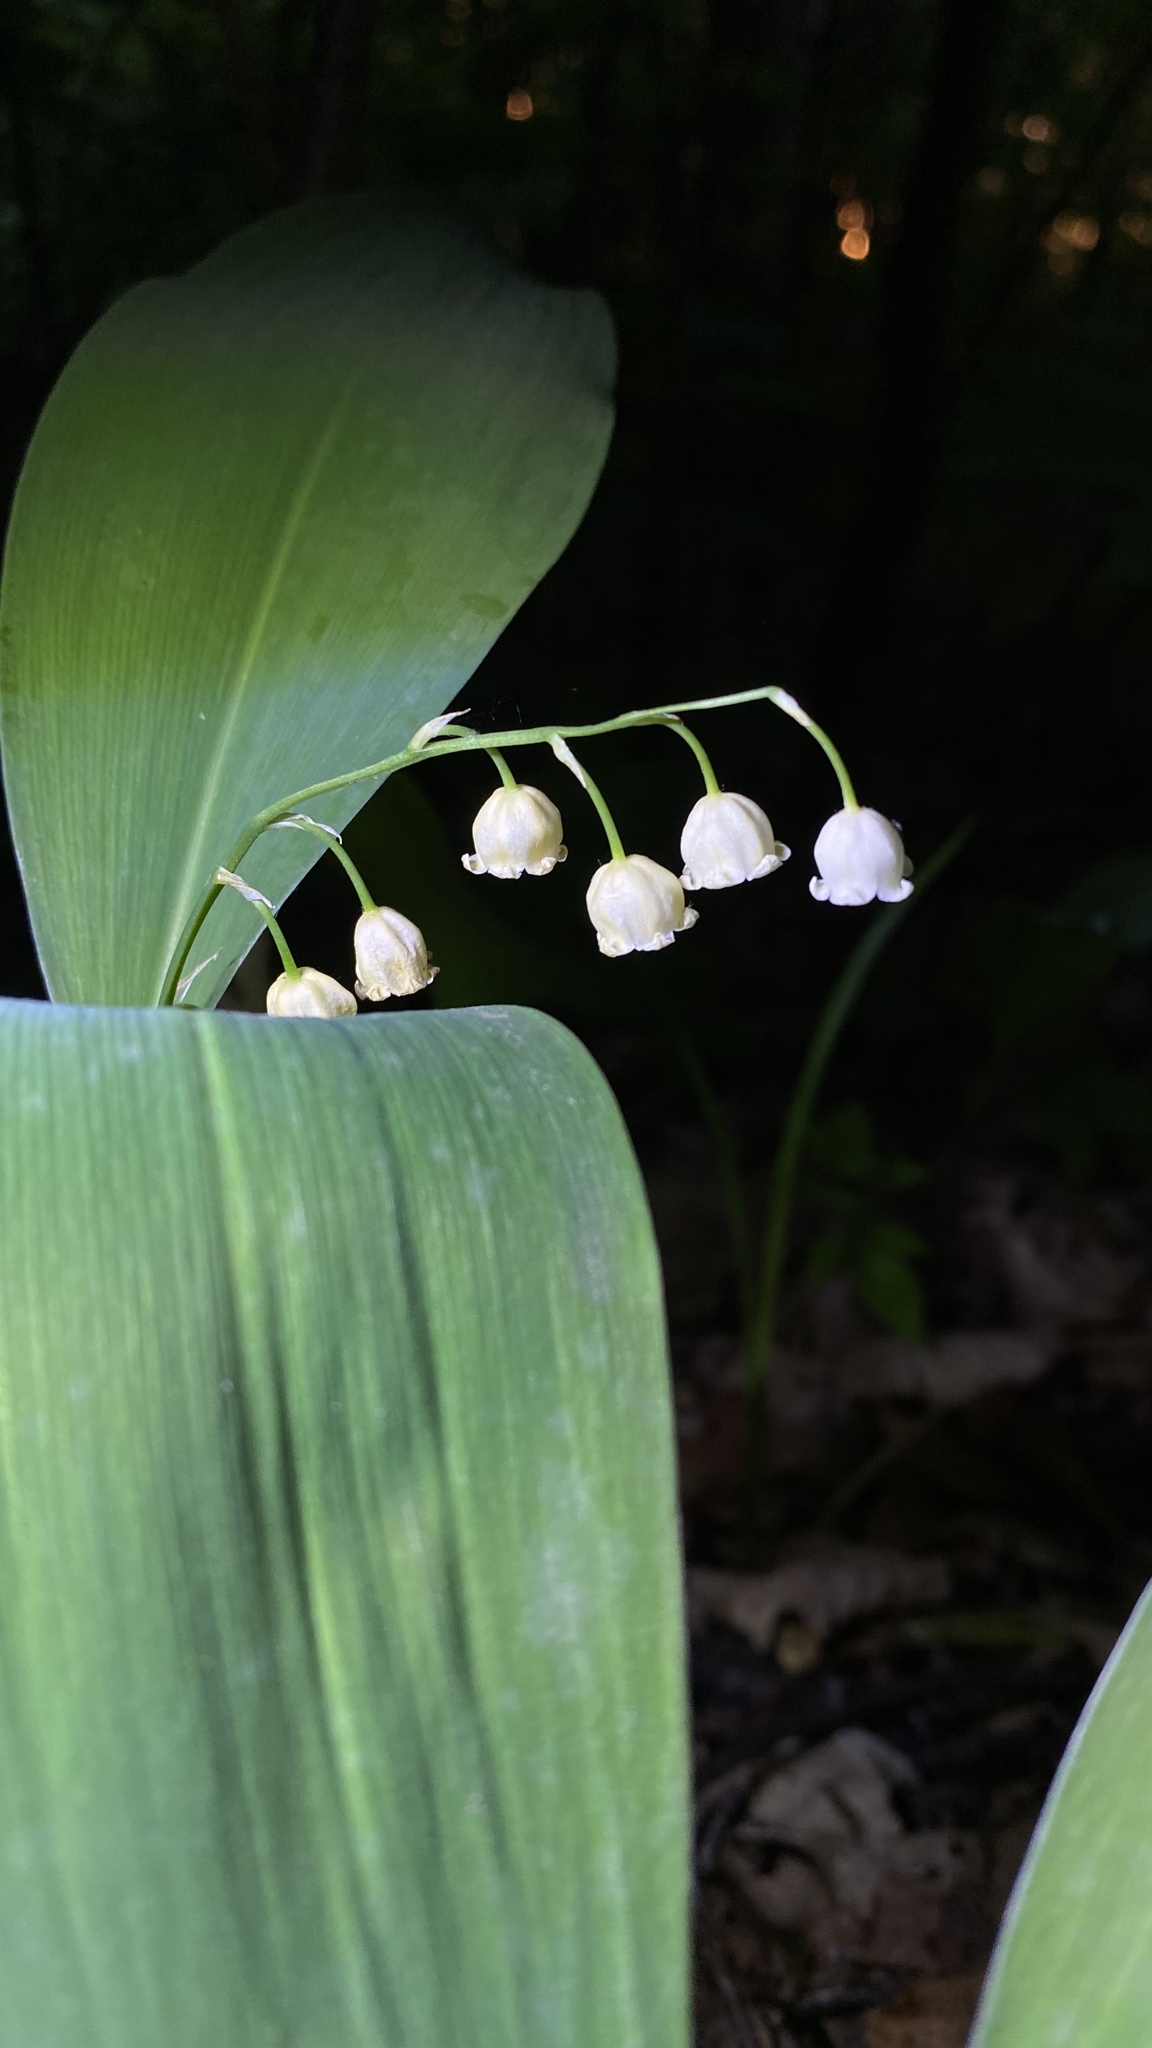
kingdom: Plantae
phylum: Tracheophyta
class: Liliopsida
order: Asparagales
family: Asparagaceae
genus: Convallaria
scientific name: Convallaria majalis
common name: Lily-of-the-valley
